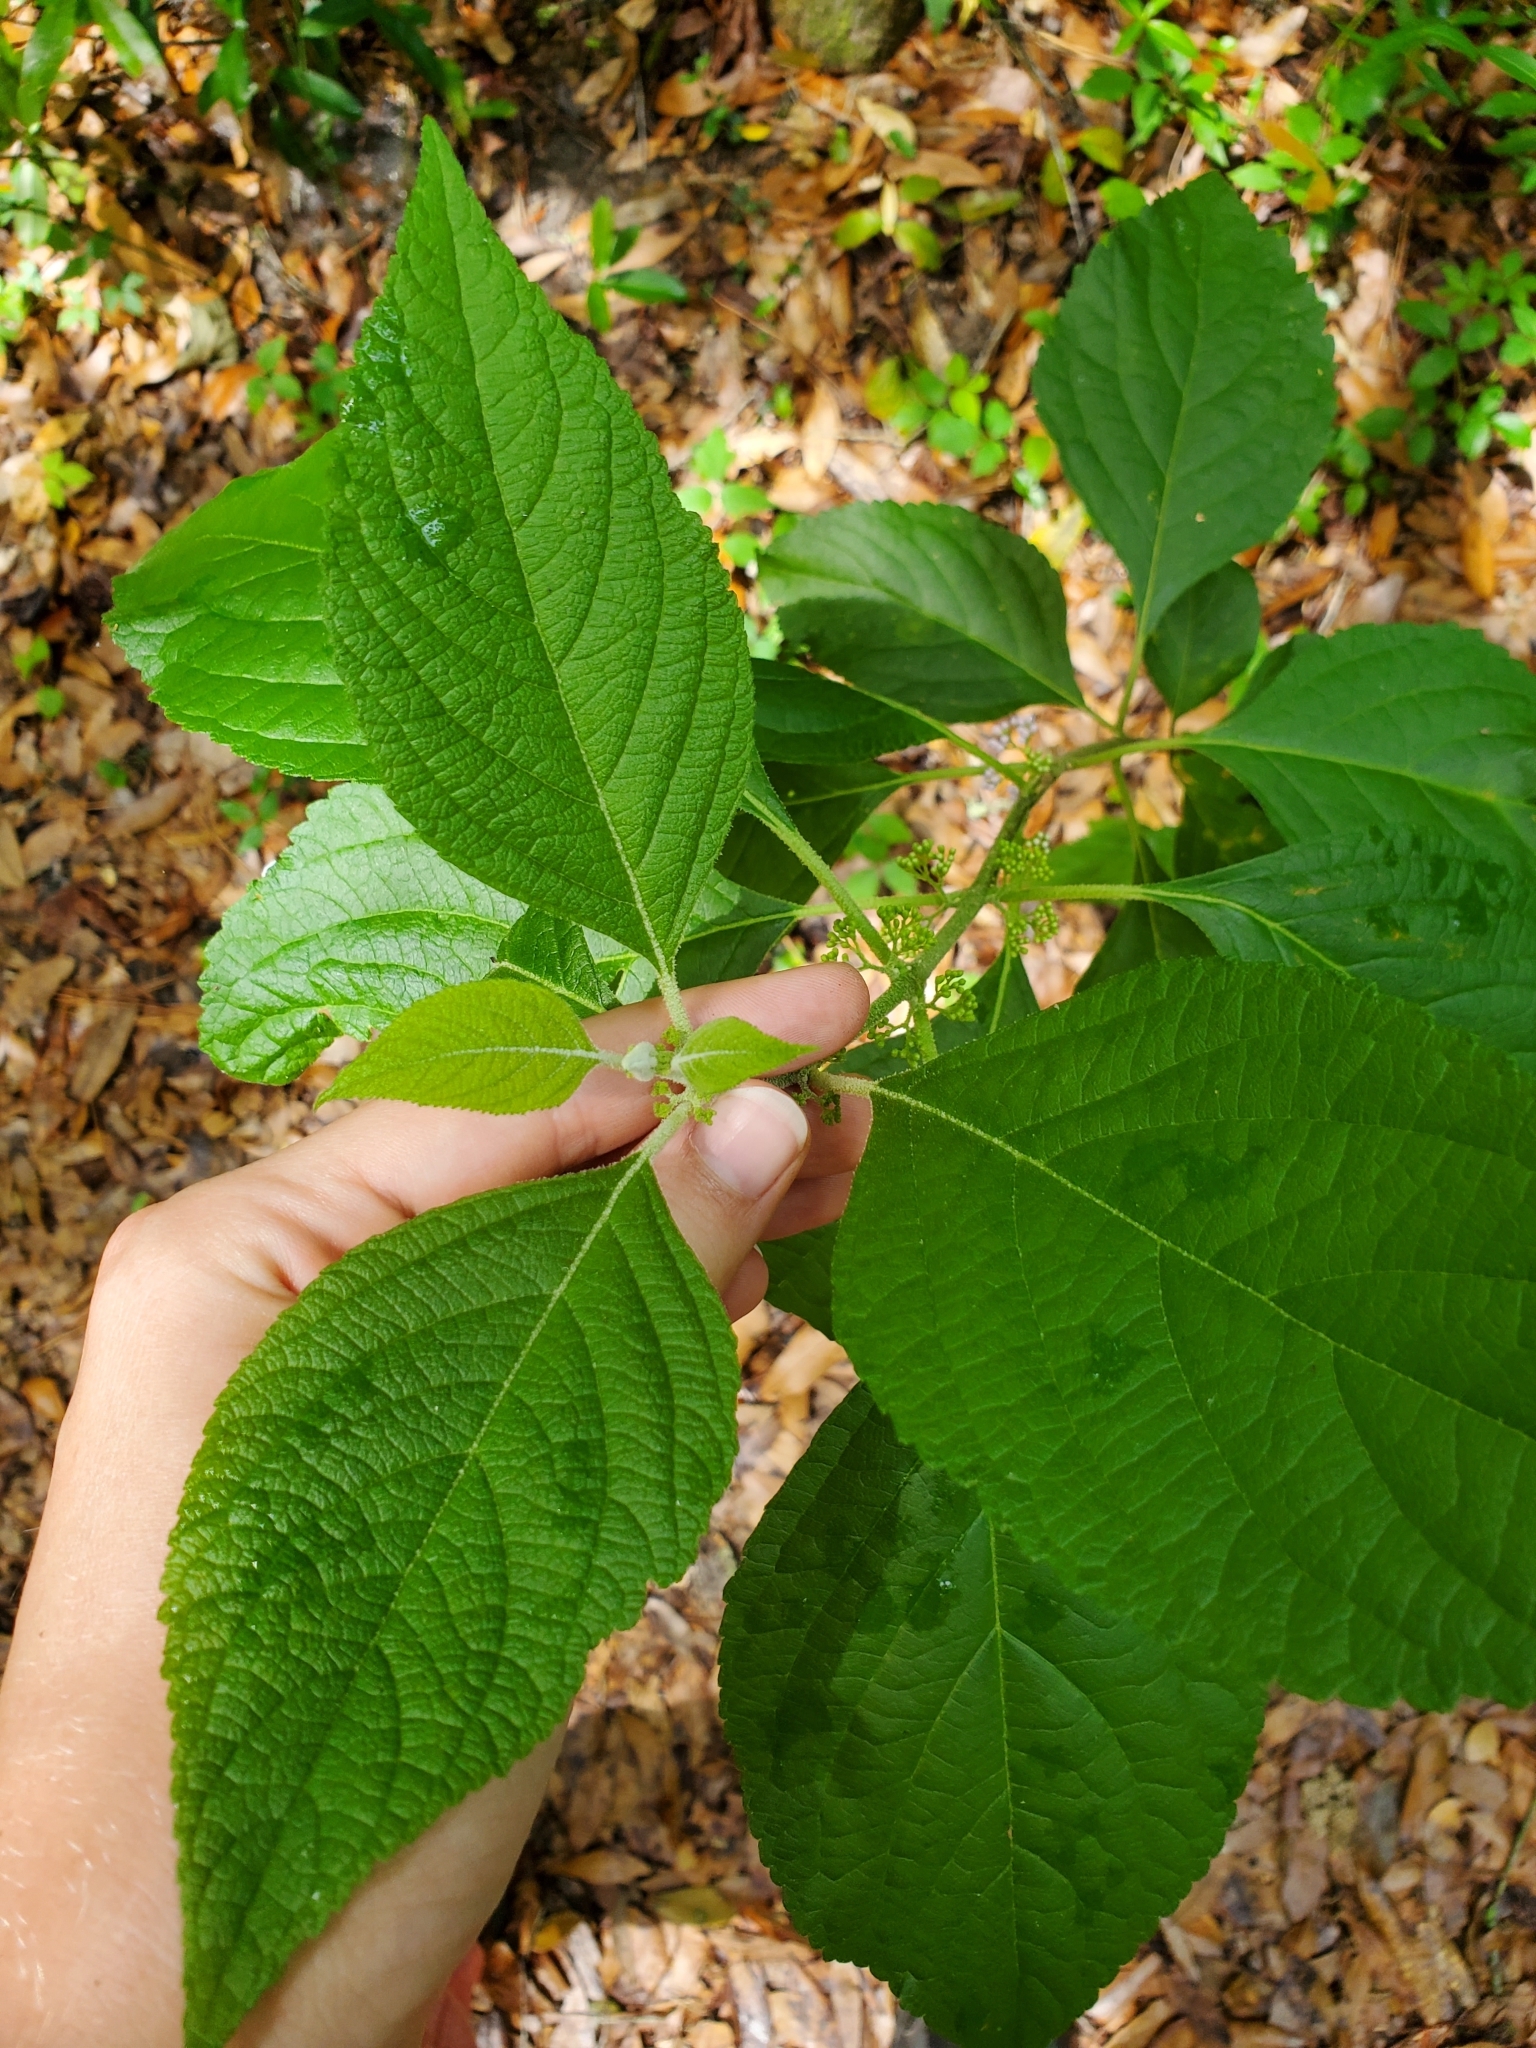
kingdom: Plantae
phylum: Tracheophyta
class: Magnoliopsida
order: Lamiales
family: Lamiaceae
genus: Callicarpa
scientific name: Callicarpa americana
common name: American beautyberry
